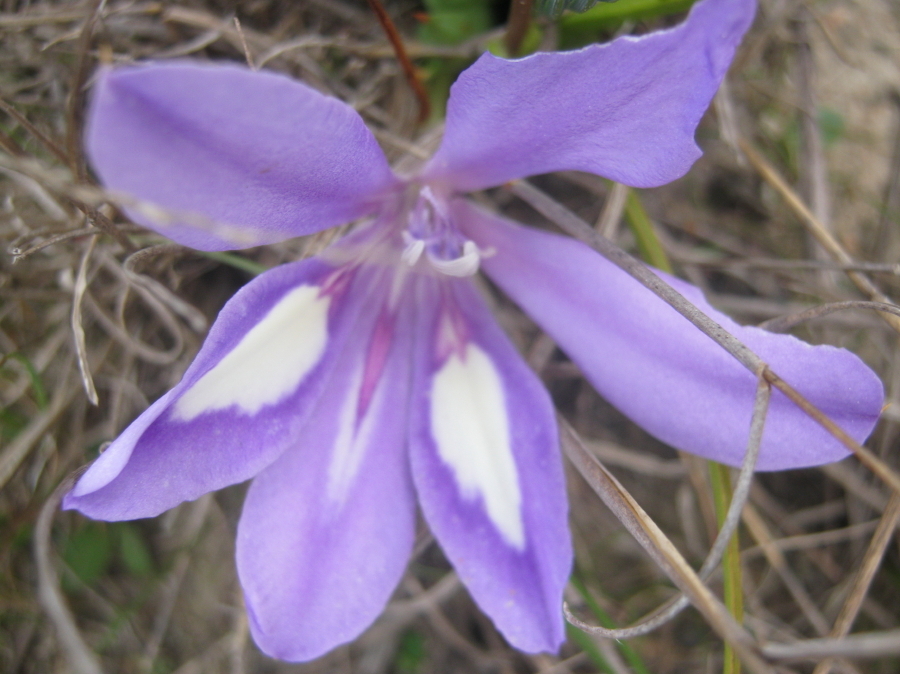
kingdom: Plantae
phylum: Tracheophyta
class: Liliopsida
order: Asparagales
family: Iridaceae
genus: Babiana
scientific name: Babiana sambucina
